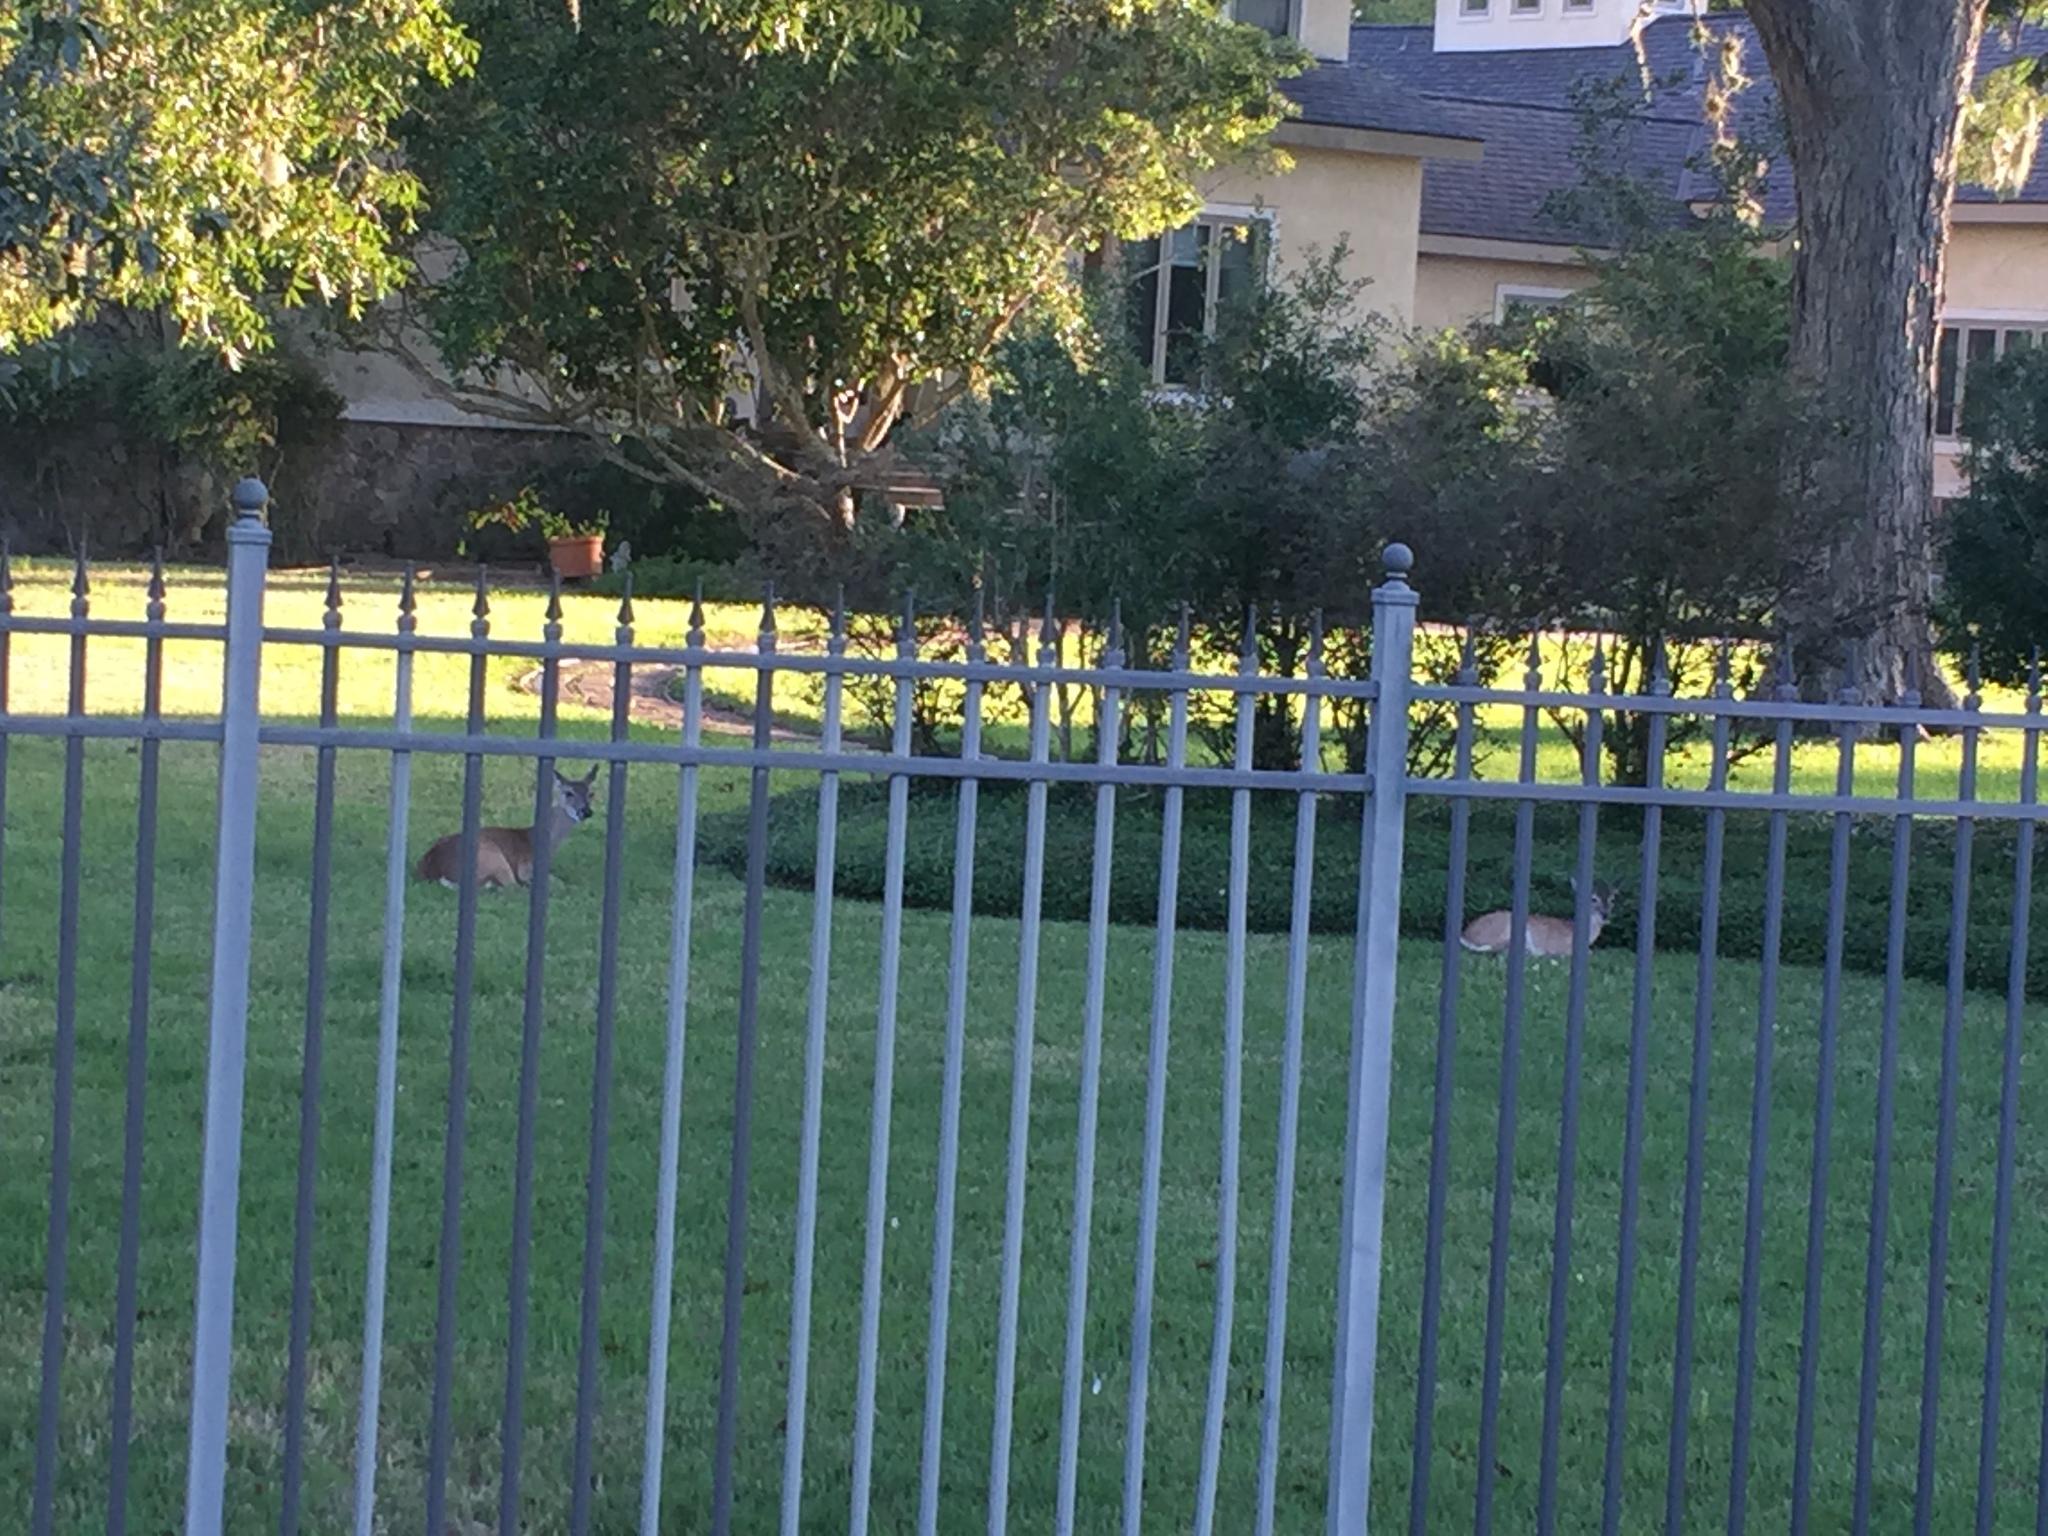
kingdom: Animalia
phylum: Chordata
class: Mammalia
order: Artiodactyla
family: Cervidae
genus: Odocoileus
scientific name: Odocoileus virginianus
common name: White-tailed deer
